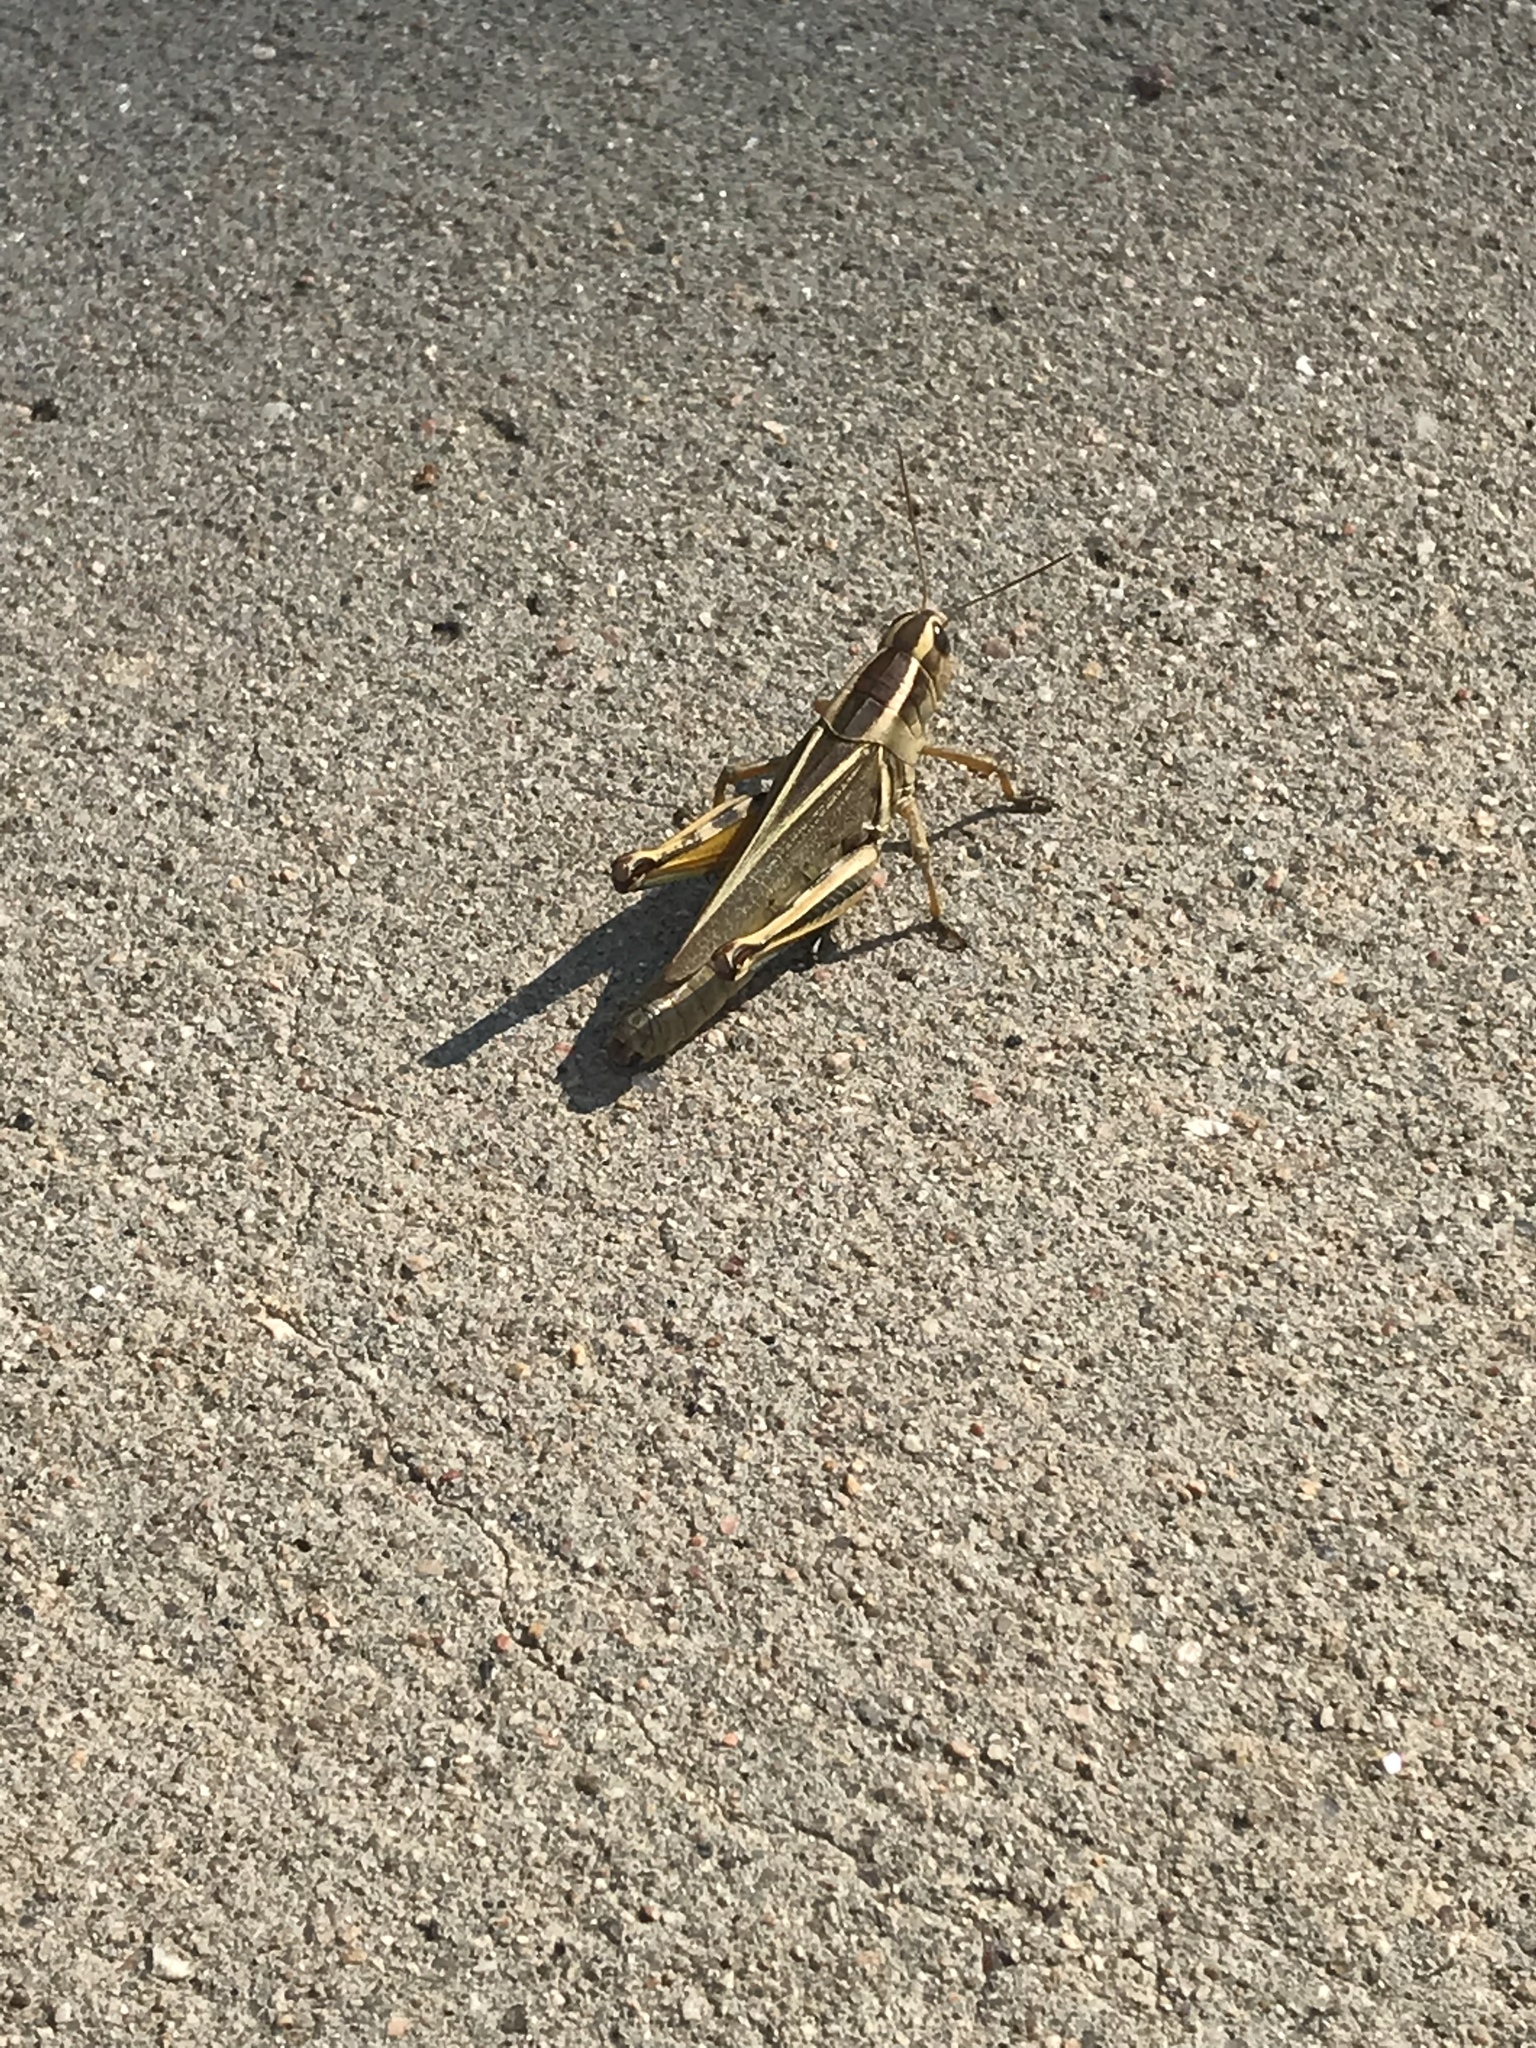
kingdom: Animalia
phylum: Arthropoda
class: Insecta
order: Orthoptera
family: Acrididae
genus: Melanoplus
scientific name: Melanoplus bivittatus
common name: Two-striped grasshopper
